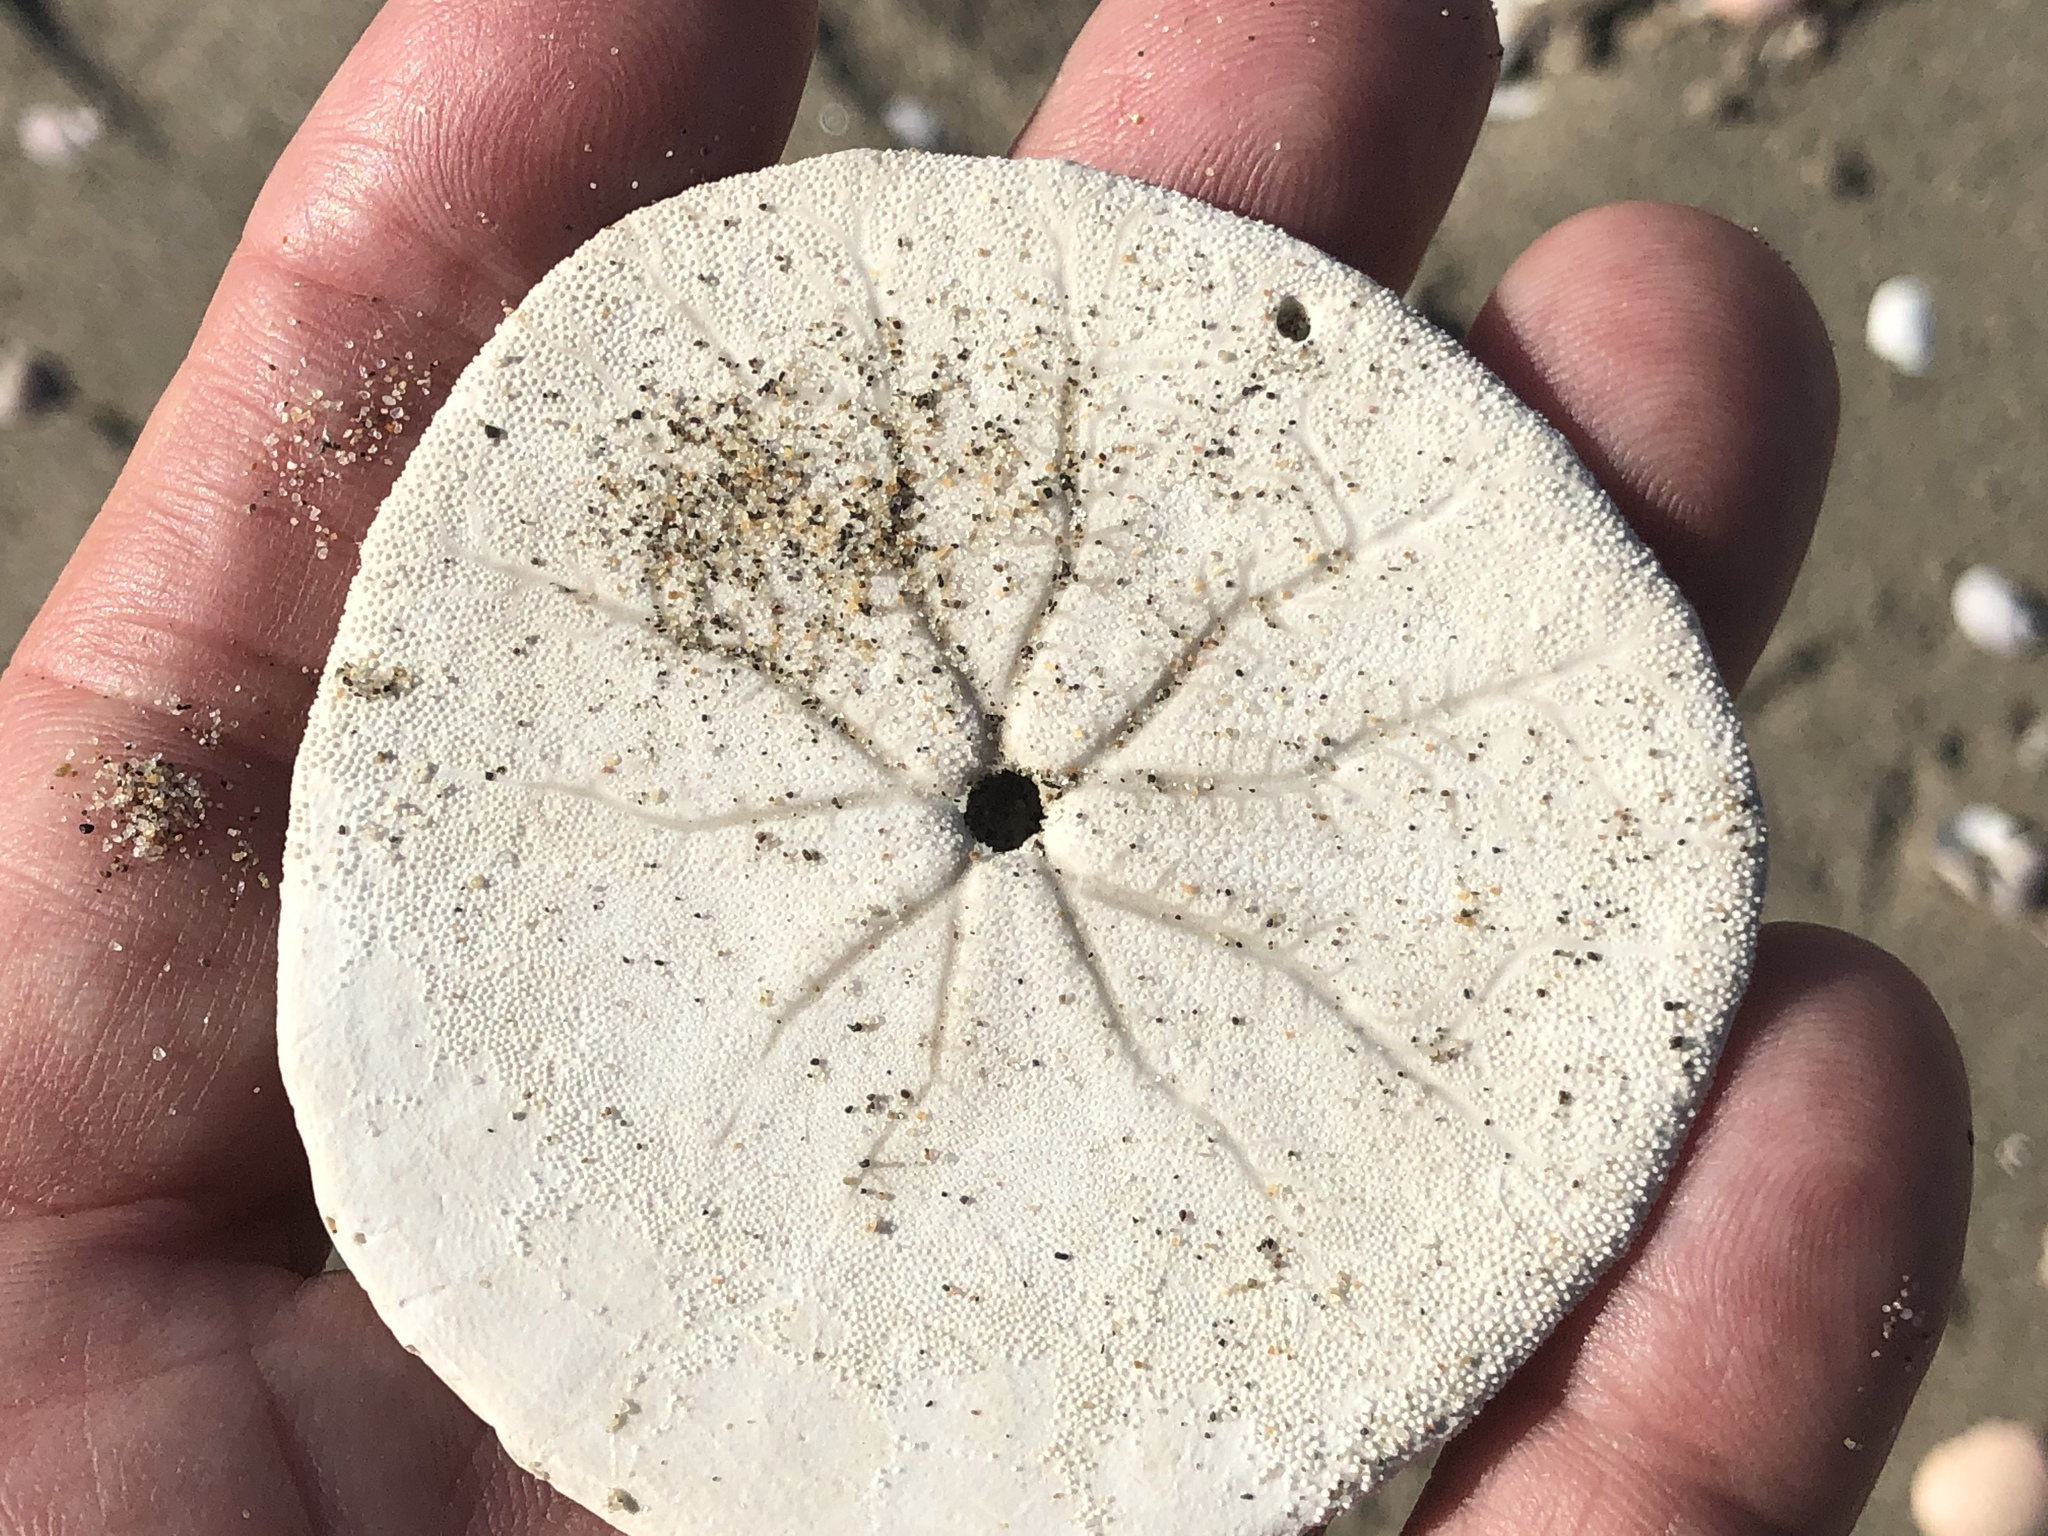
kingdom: Animalia
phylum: Echinodermata
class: Echinoidea
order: Echinolampadacea
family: Dendrasteridae
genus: Dendraster
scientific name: Dendraster excentricus
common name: Eccentric sand dollar sea urchin
